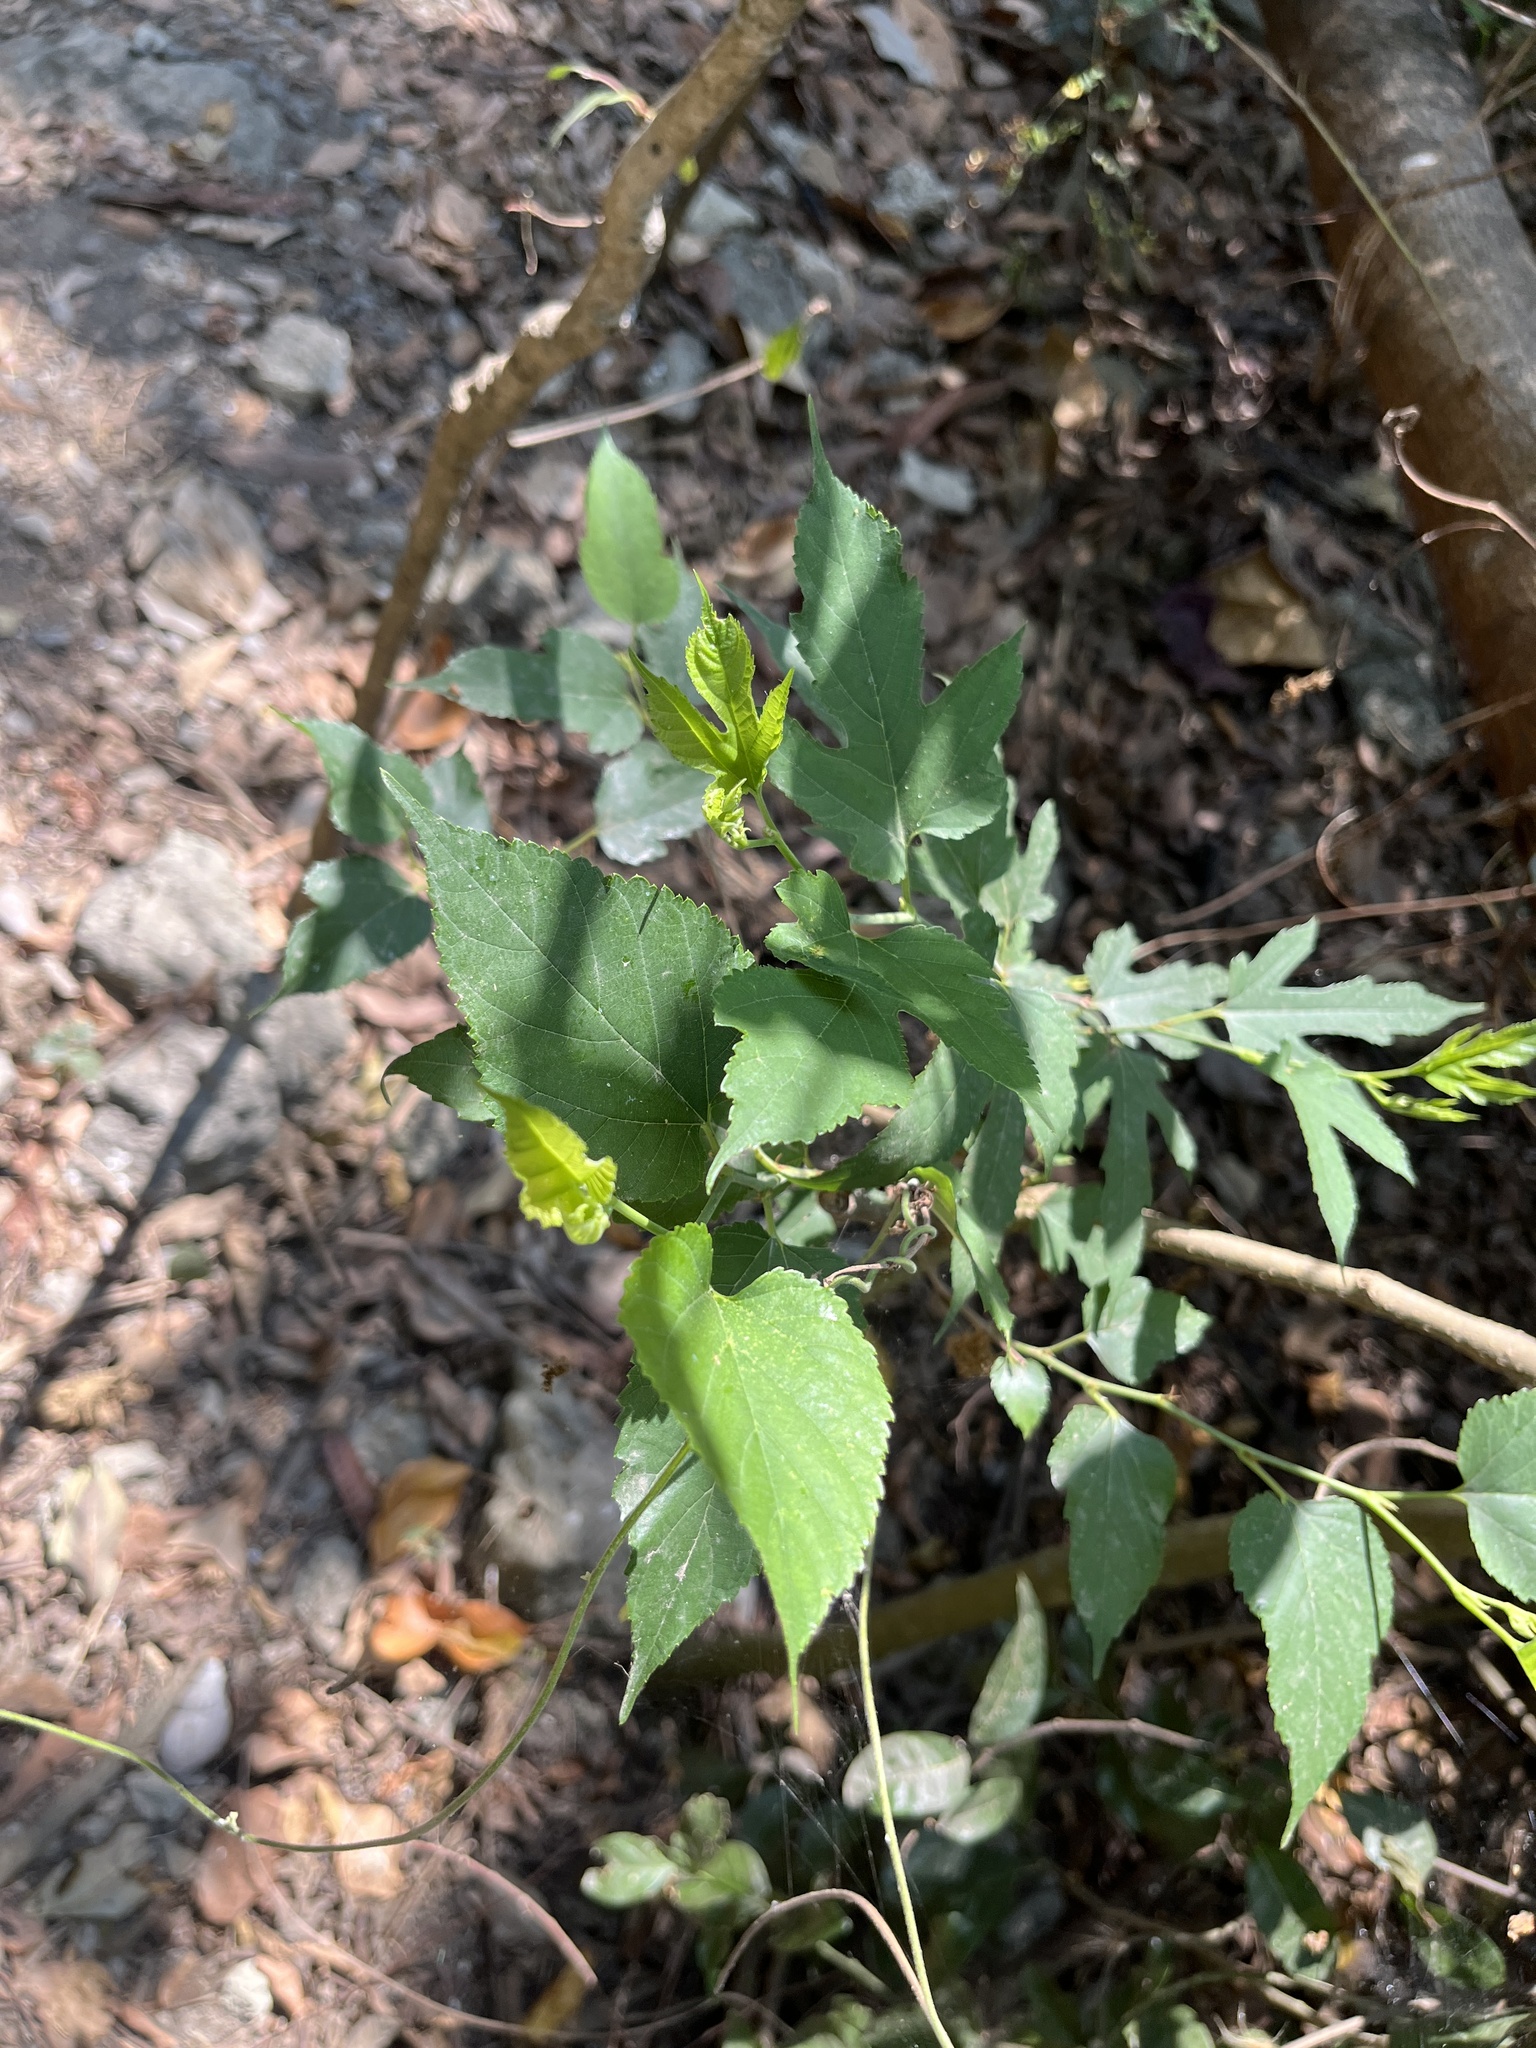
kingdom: Plantae
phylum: Tracheophyta
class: Magnoliopsida
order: Rosales
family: Moraceae
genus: Morus
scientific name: Morus indica
